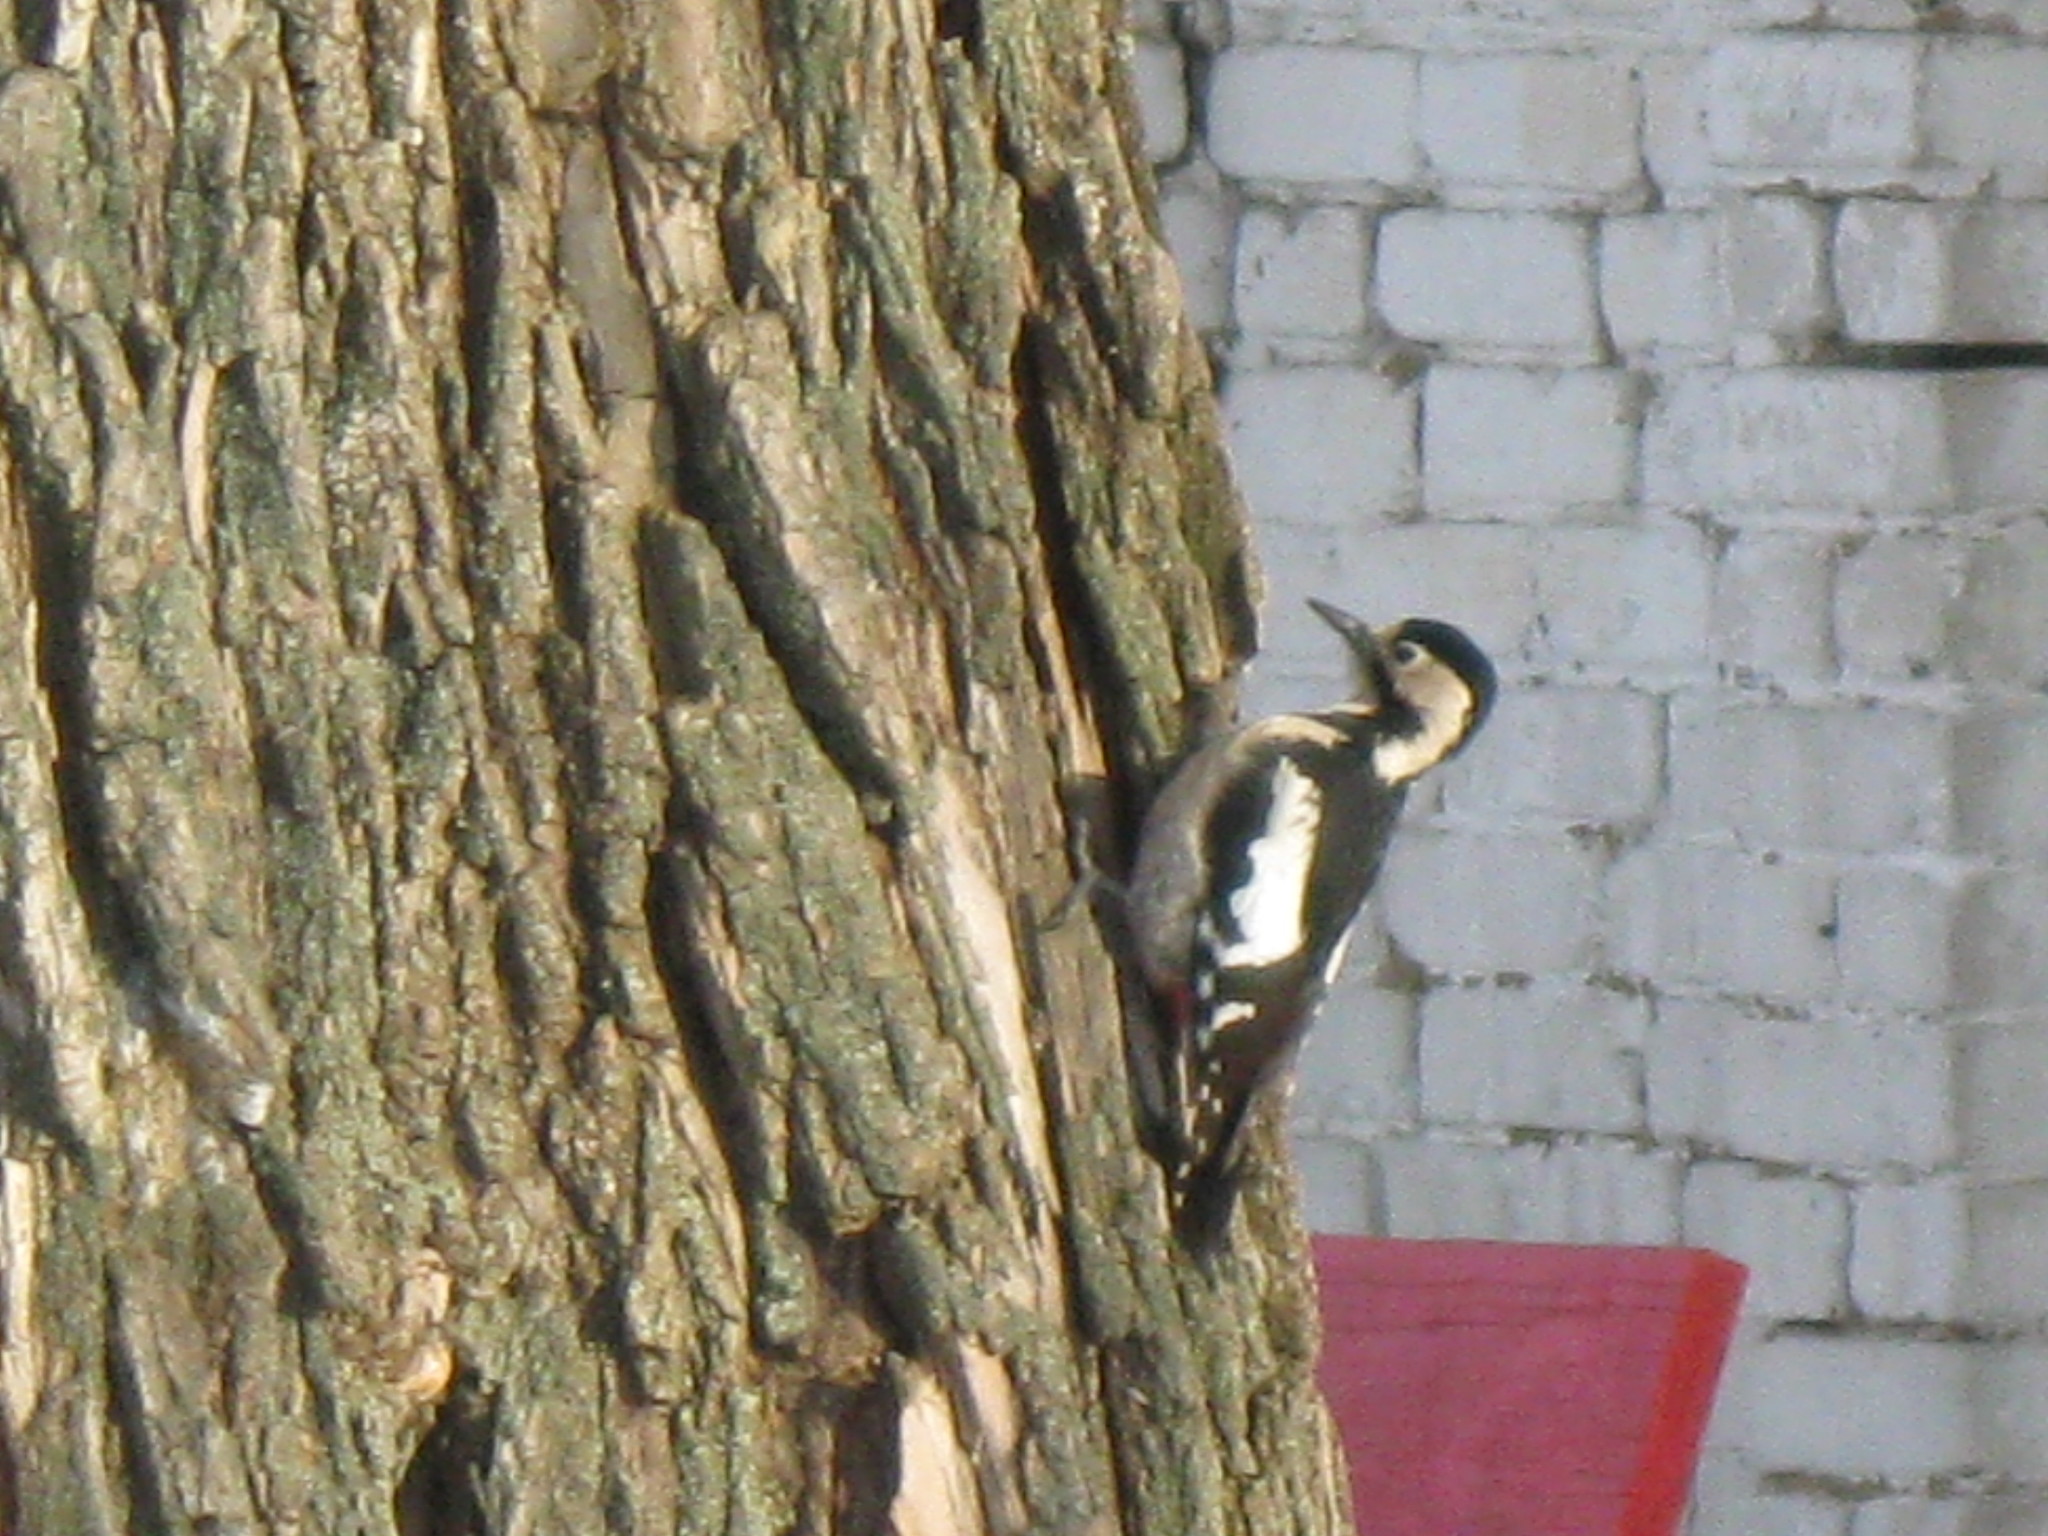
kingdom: Animalia
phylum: Chordata
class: Aves
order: Piciformes
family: Picidae
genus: Dendrocopos
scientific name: Dendrocopos major
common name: Great spotted woodpecker
